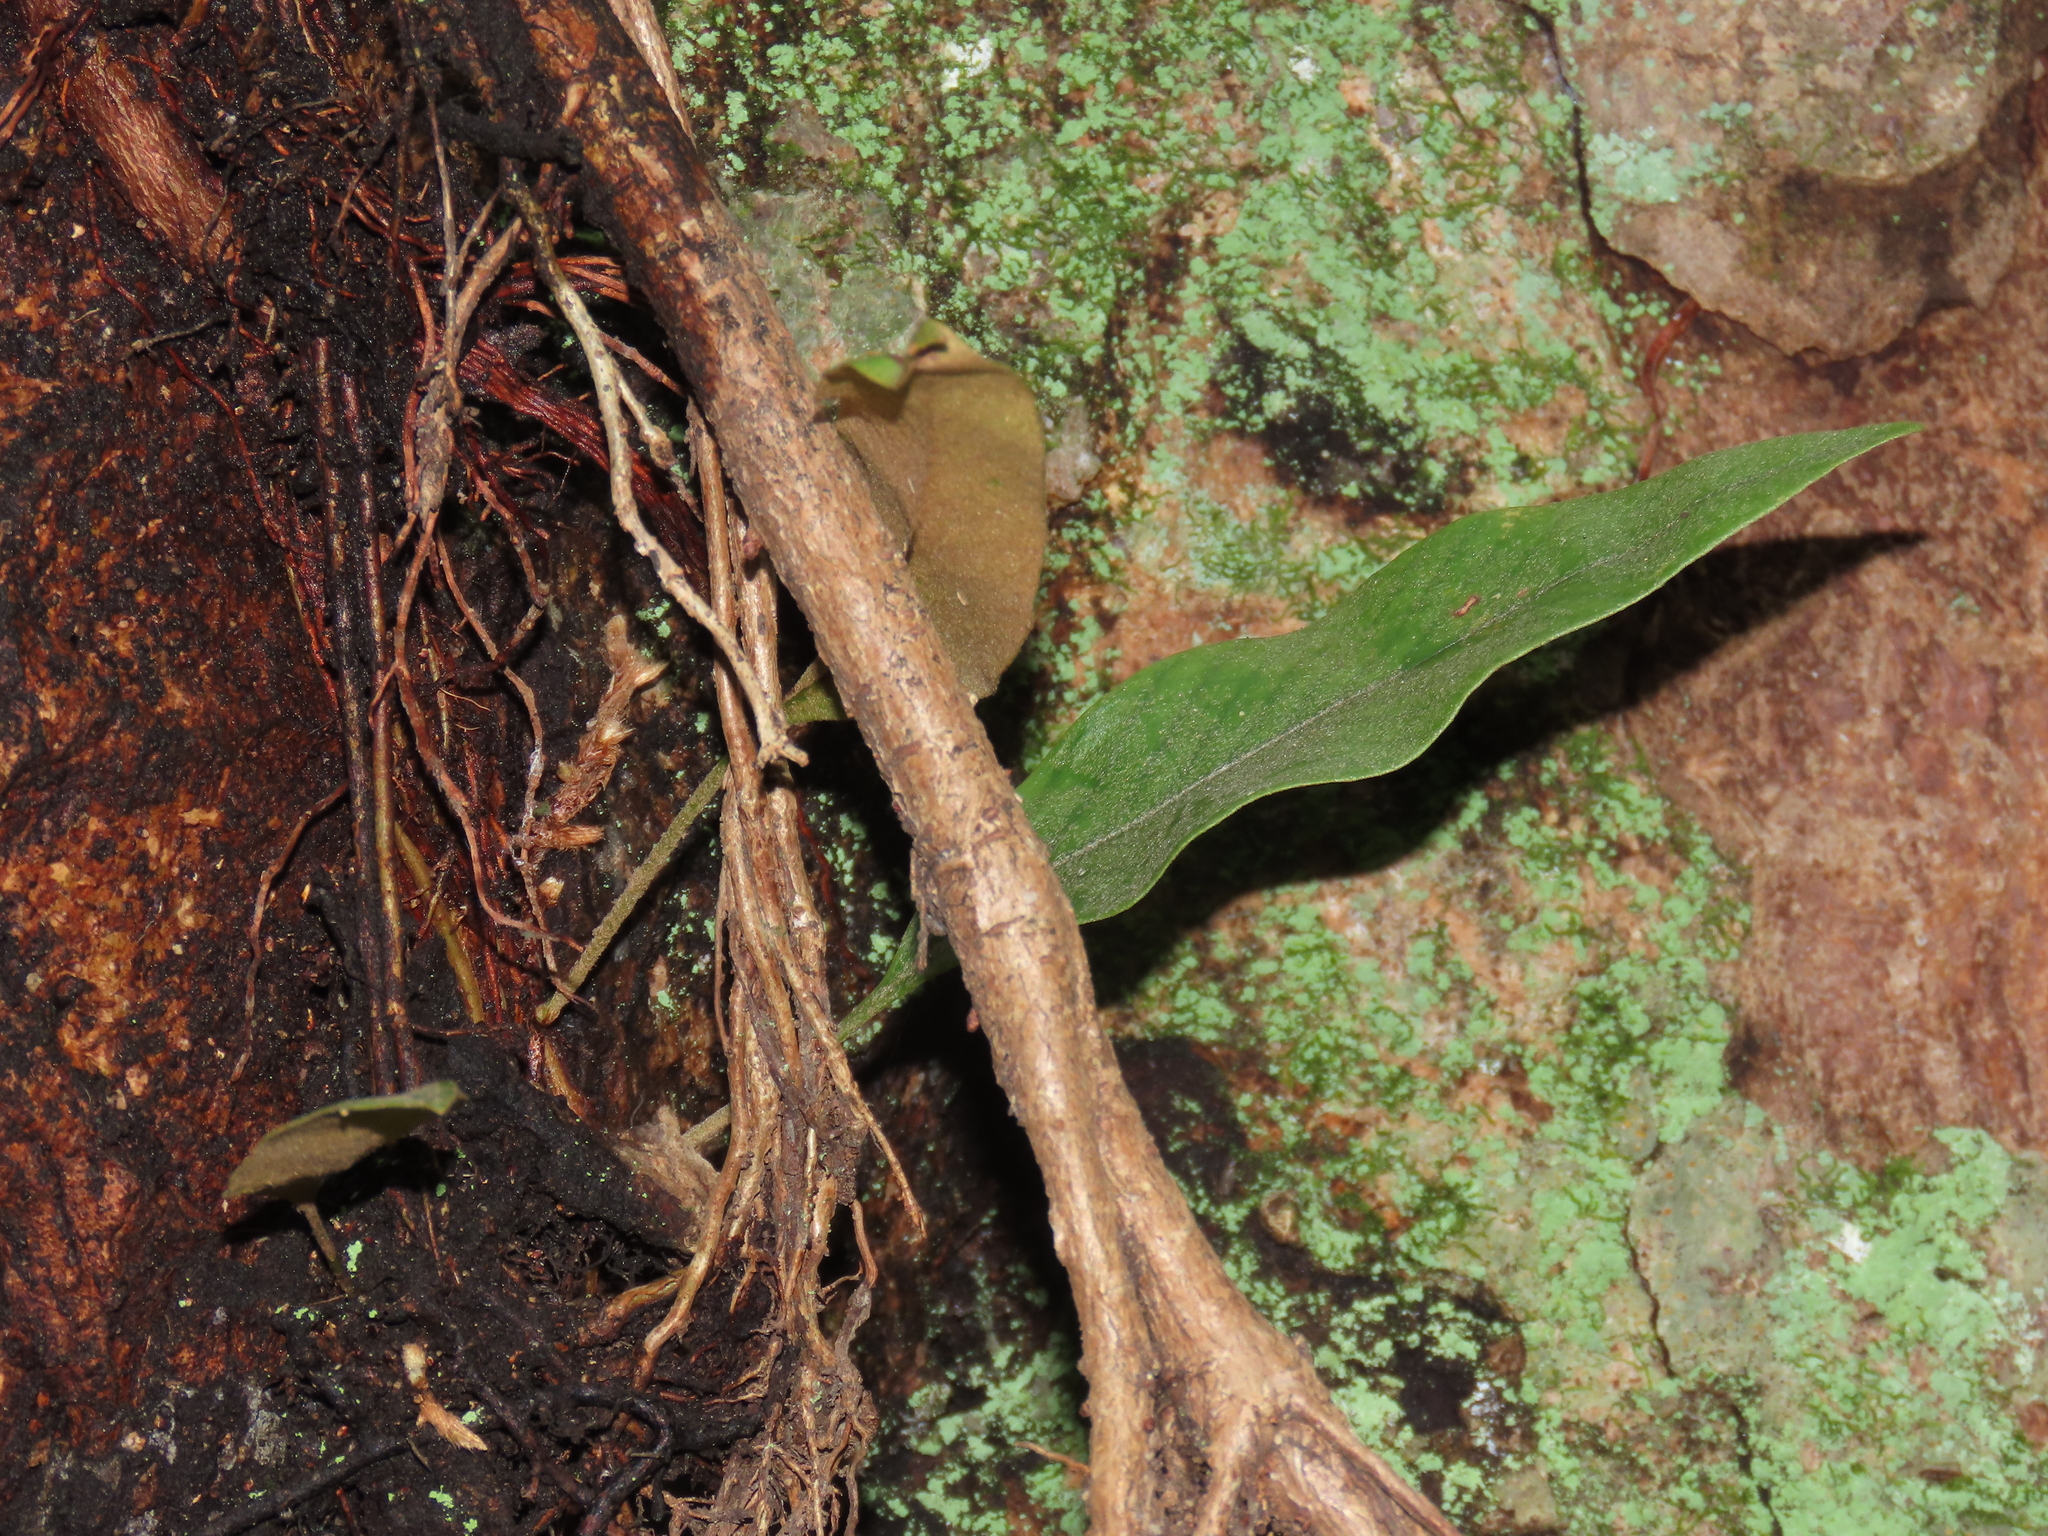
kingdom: Plantae
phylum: Tracheophyta
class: Polypodiopsida
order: Polypodiales
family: Polypodiaceae
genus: Pyrrosia
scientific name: Pyrrosia lingua
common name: Felt fern
